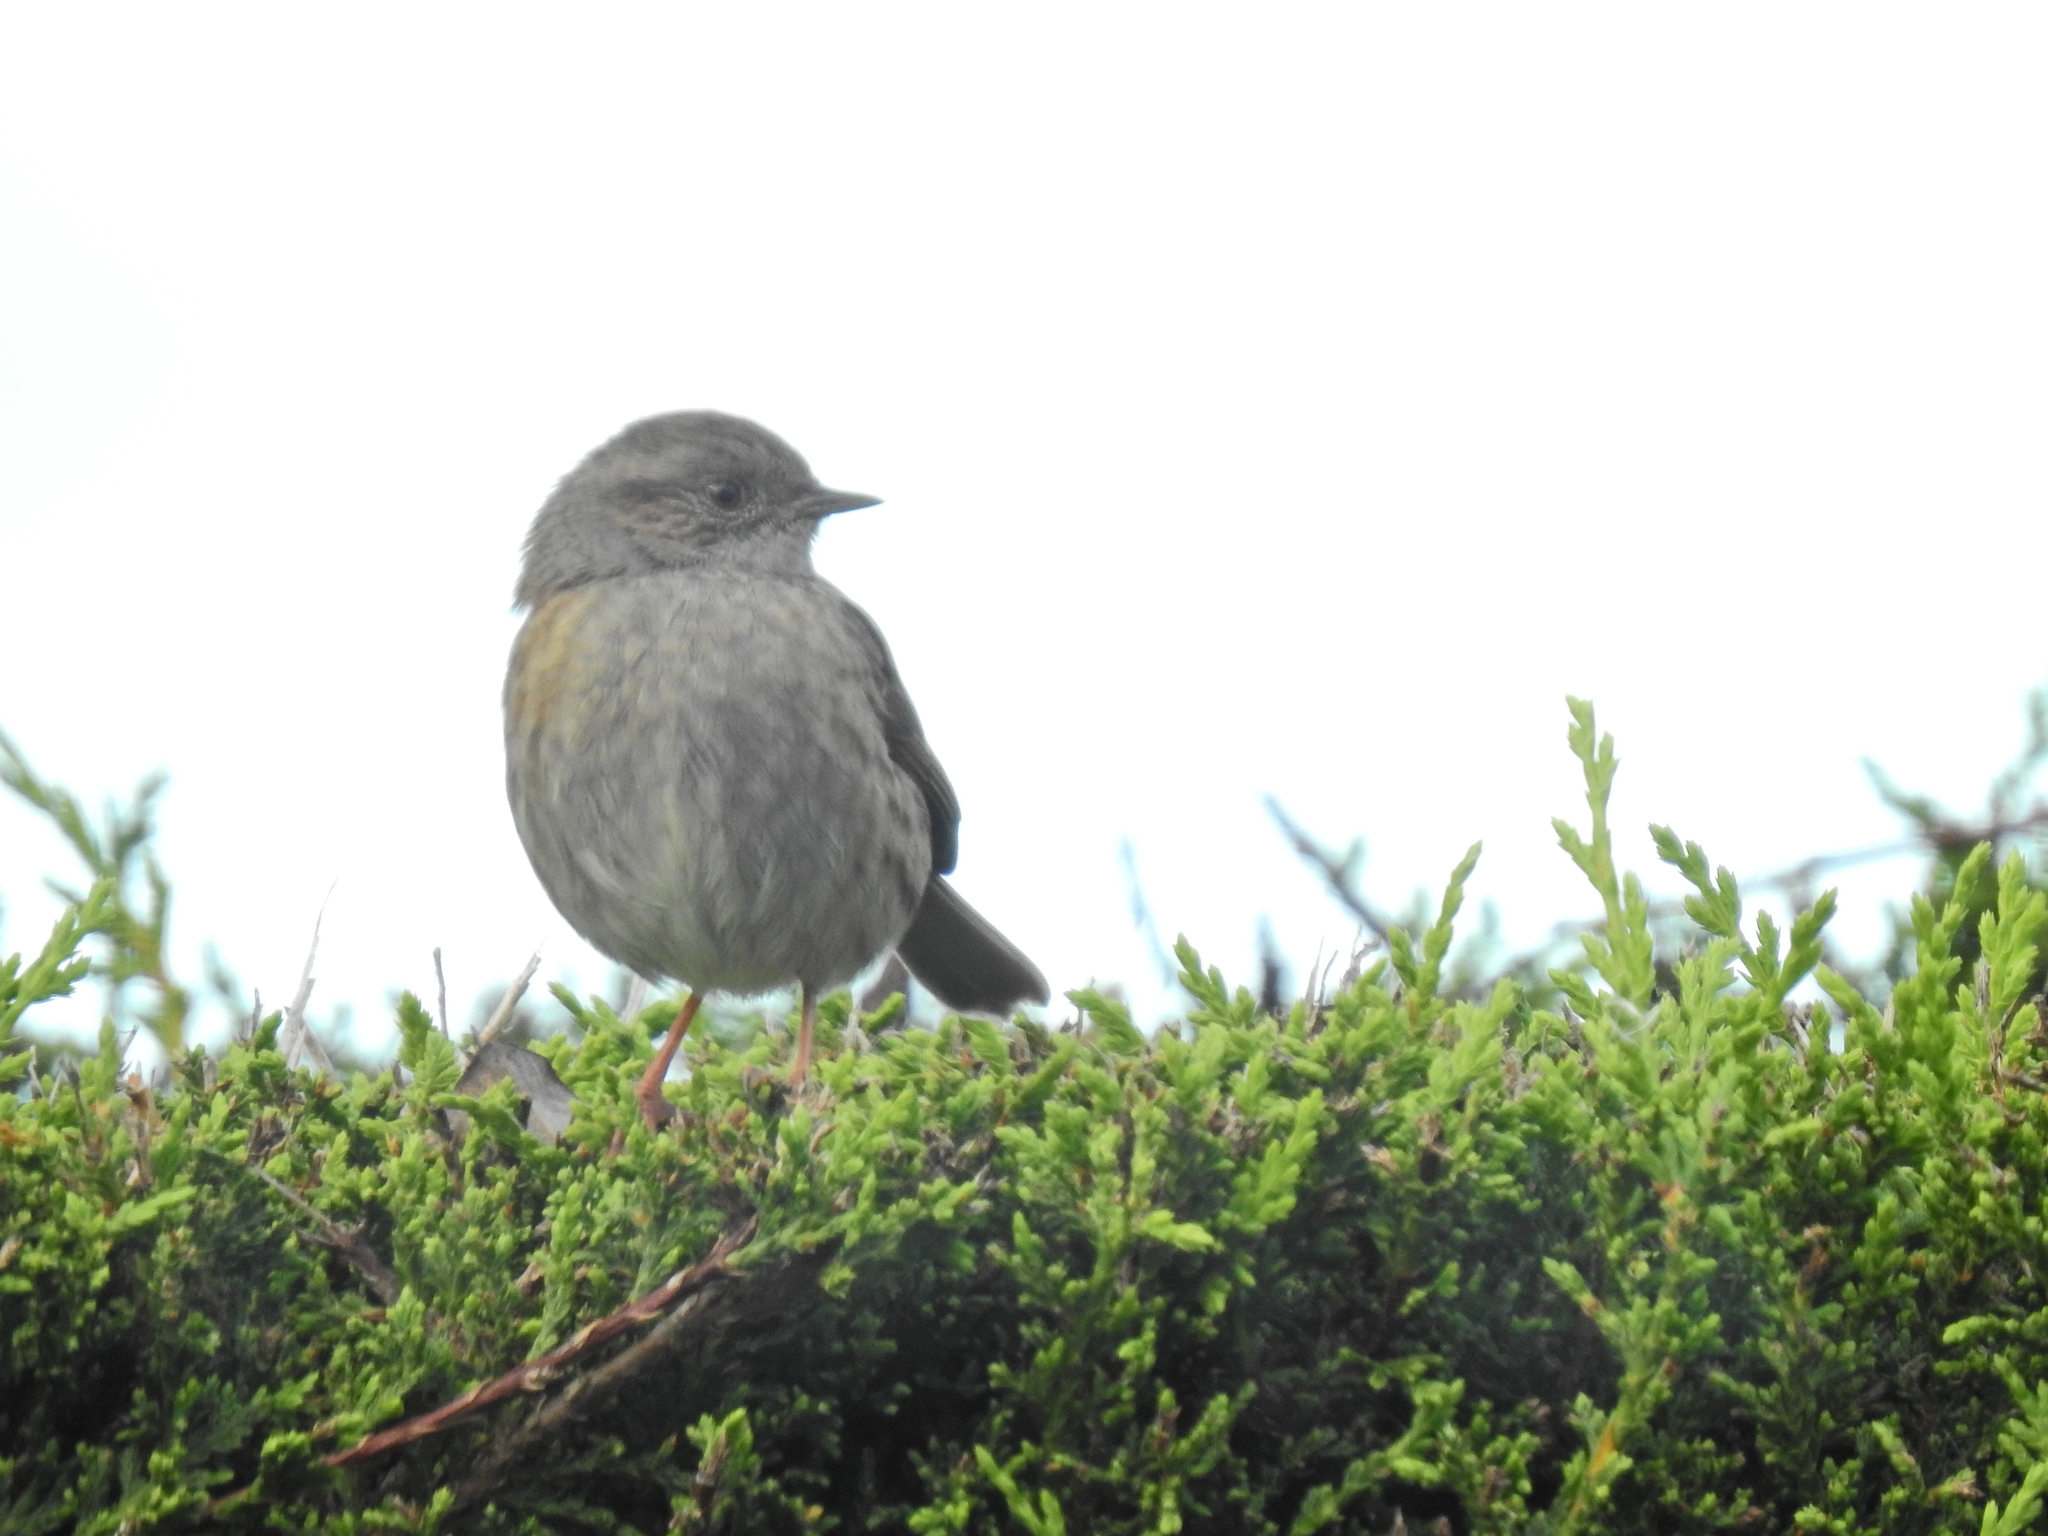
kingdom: Animalia
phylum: Chordata
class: Aves
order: Passeriformes
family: Prunellidae
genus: Prunella
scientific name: Prunella modularis
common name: Dunnock
